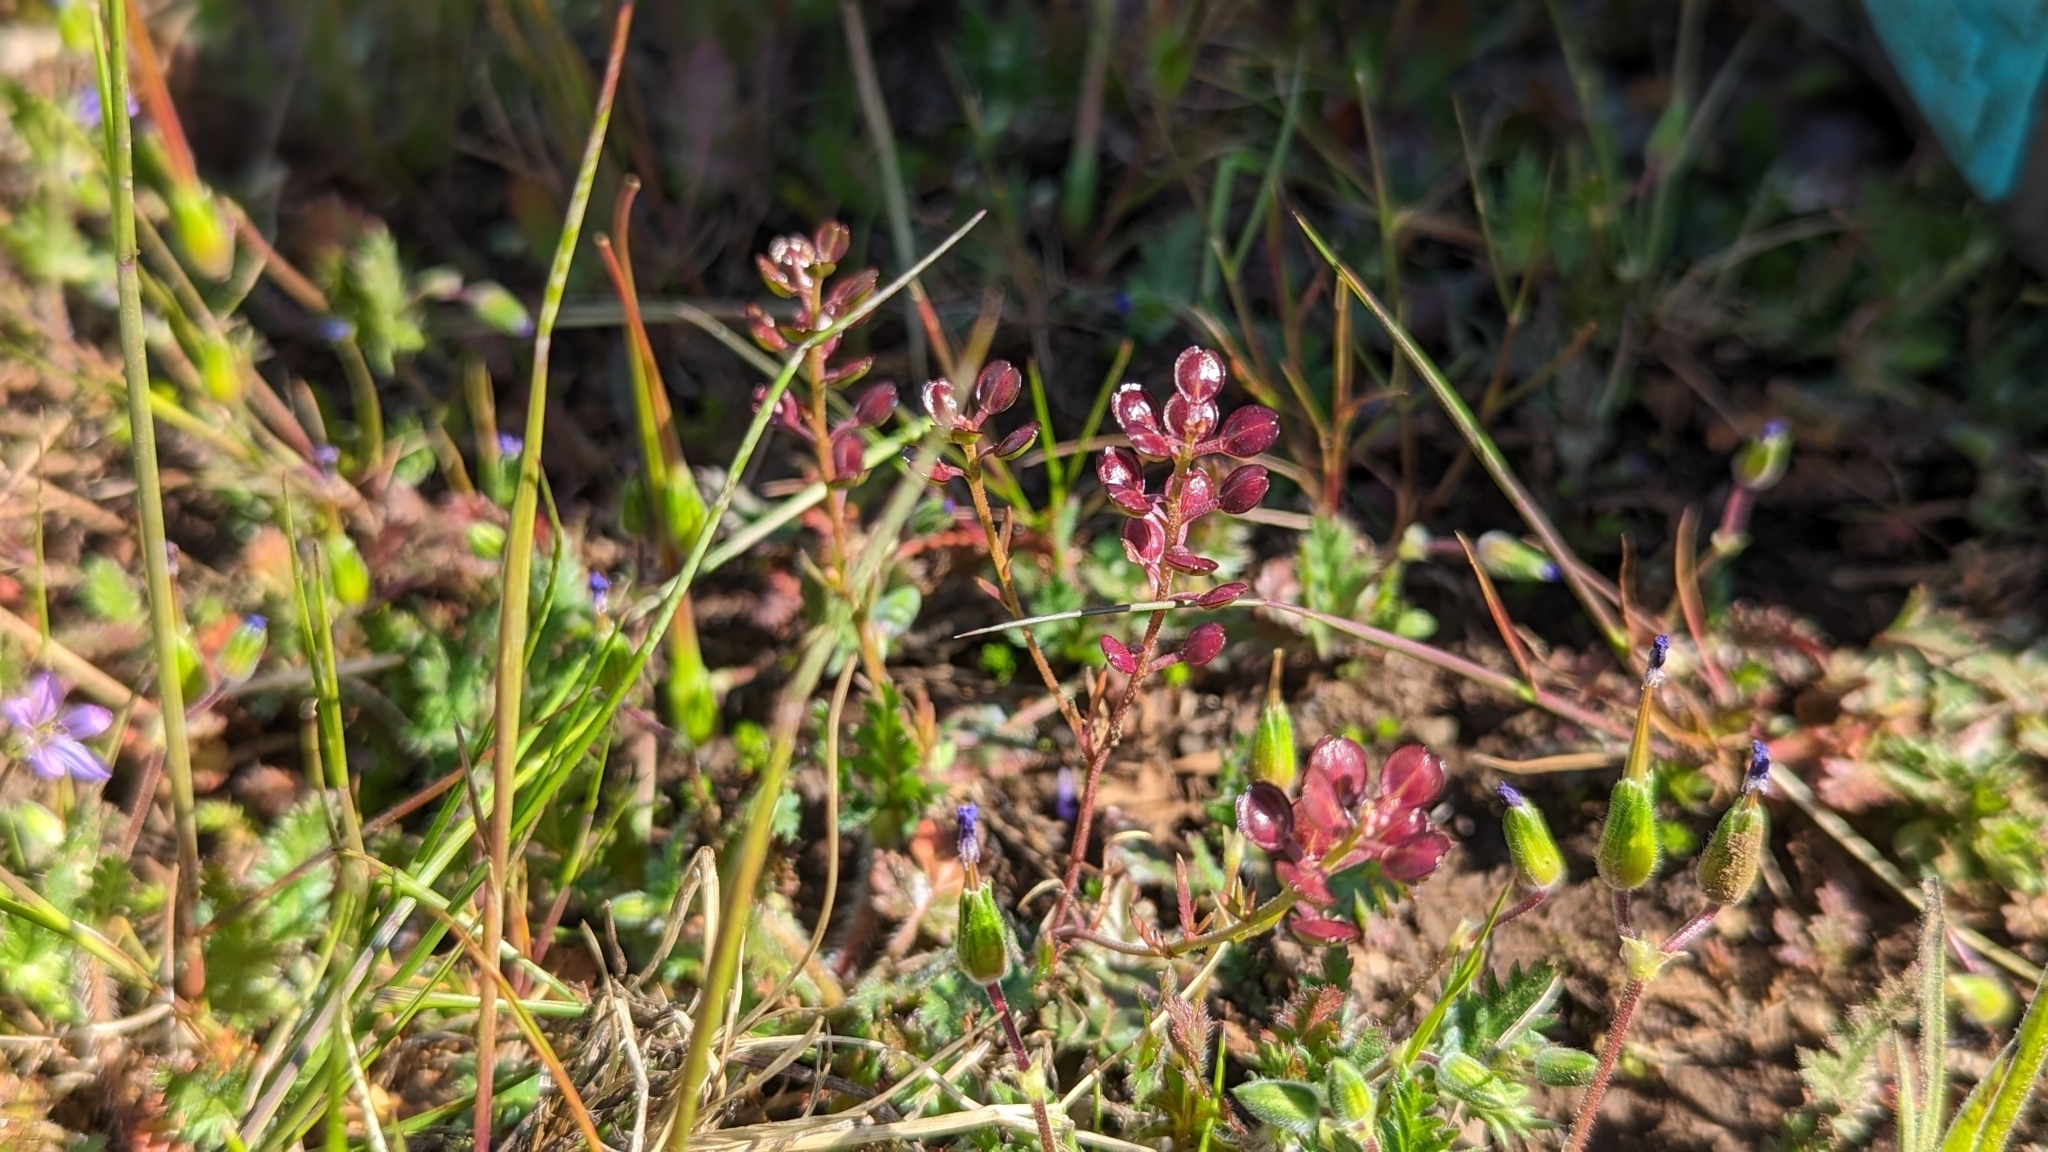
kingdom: Plantae
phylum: Tracheophyta
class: Magnoliopsida
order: Brassicales
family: Brassicaceae
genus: Lepidium
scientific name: Lepidium nitidum
